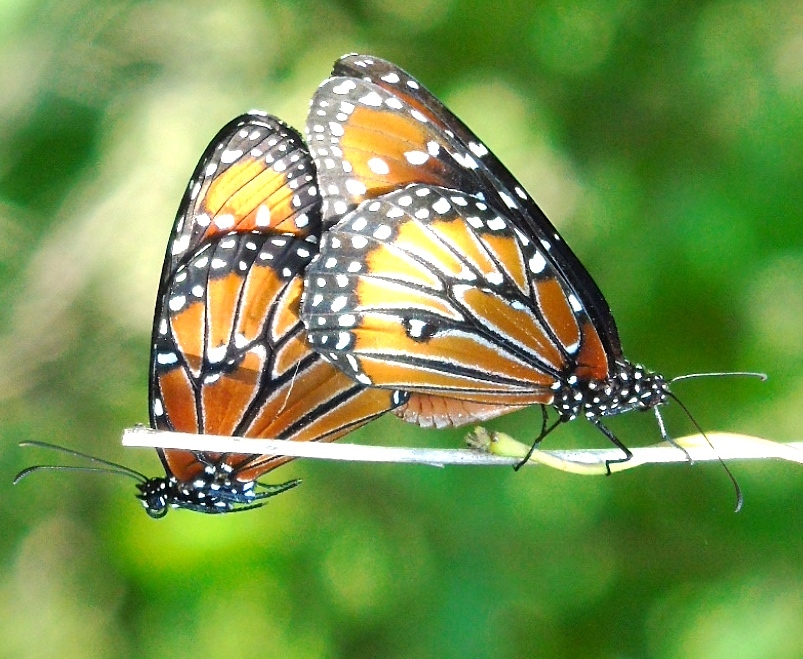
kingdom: Animalia
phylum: Arthropoda
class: Insecta
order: Lepidoptera
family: Nymphalidae
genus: Danaus
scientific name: Danaus gilippus
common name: Queen
